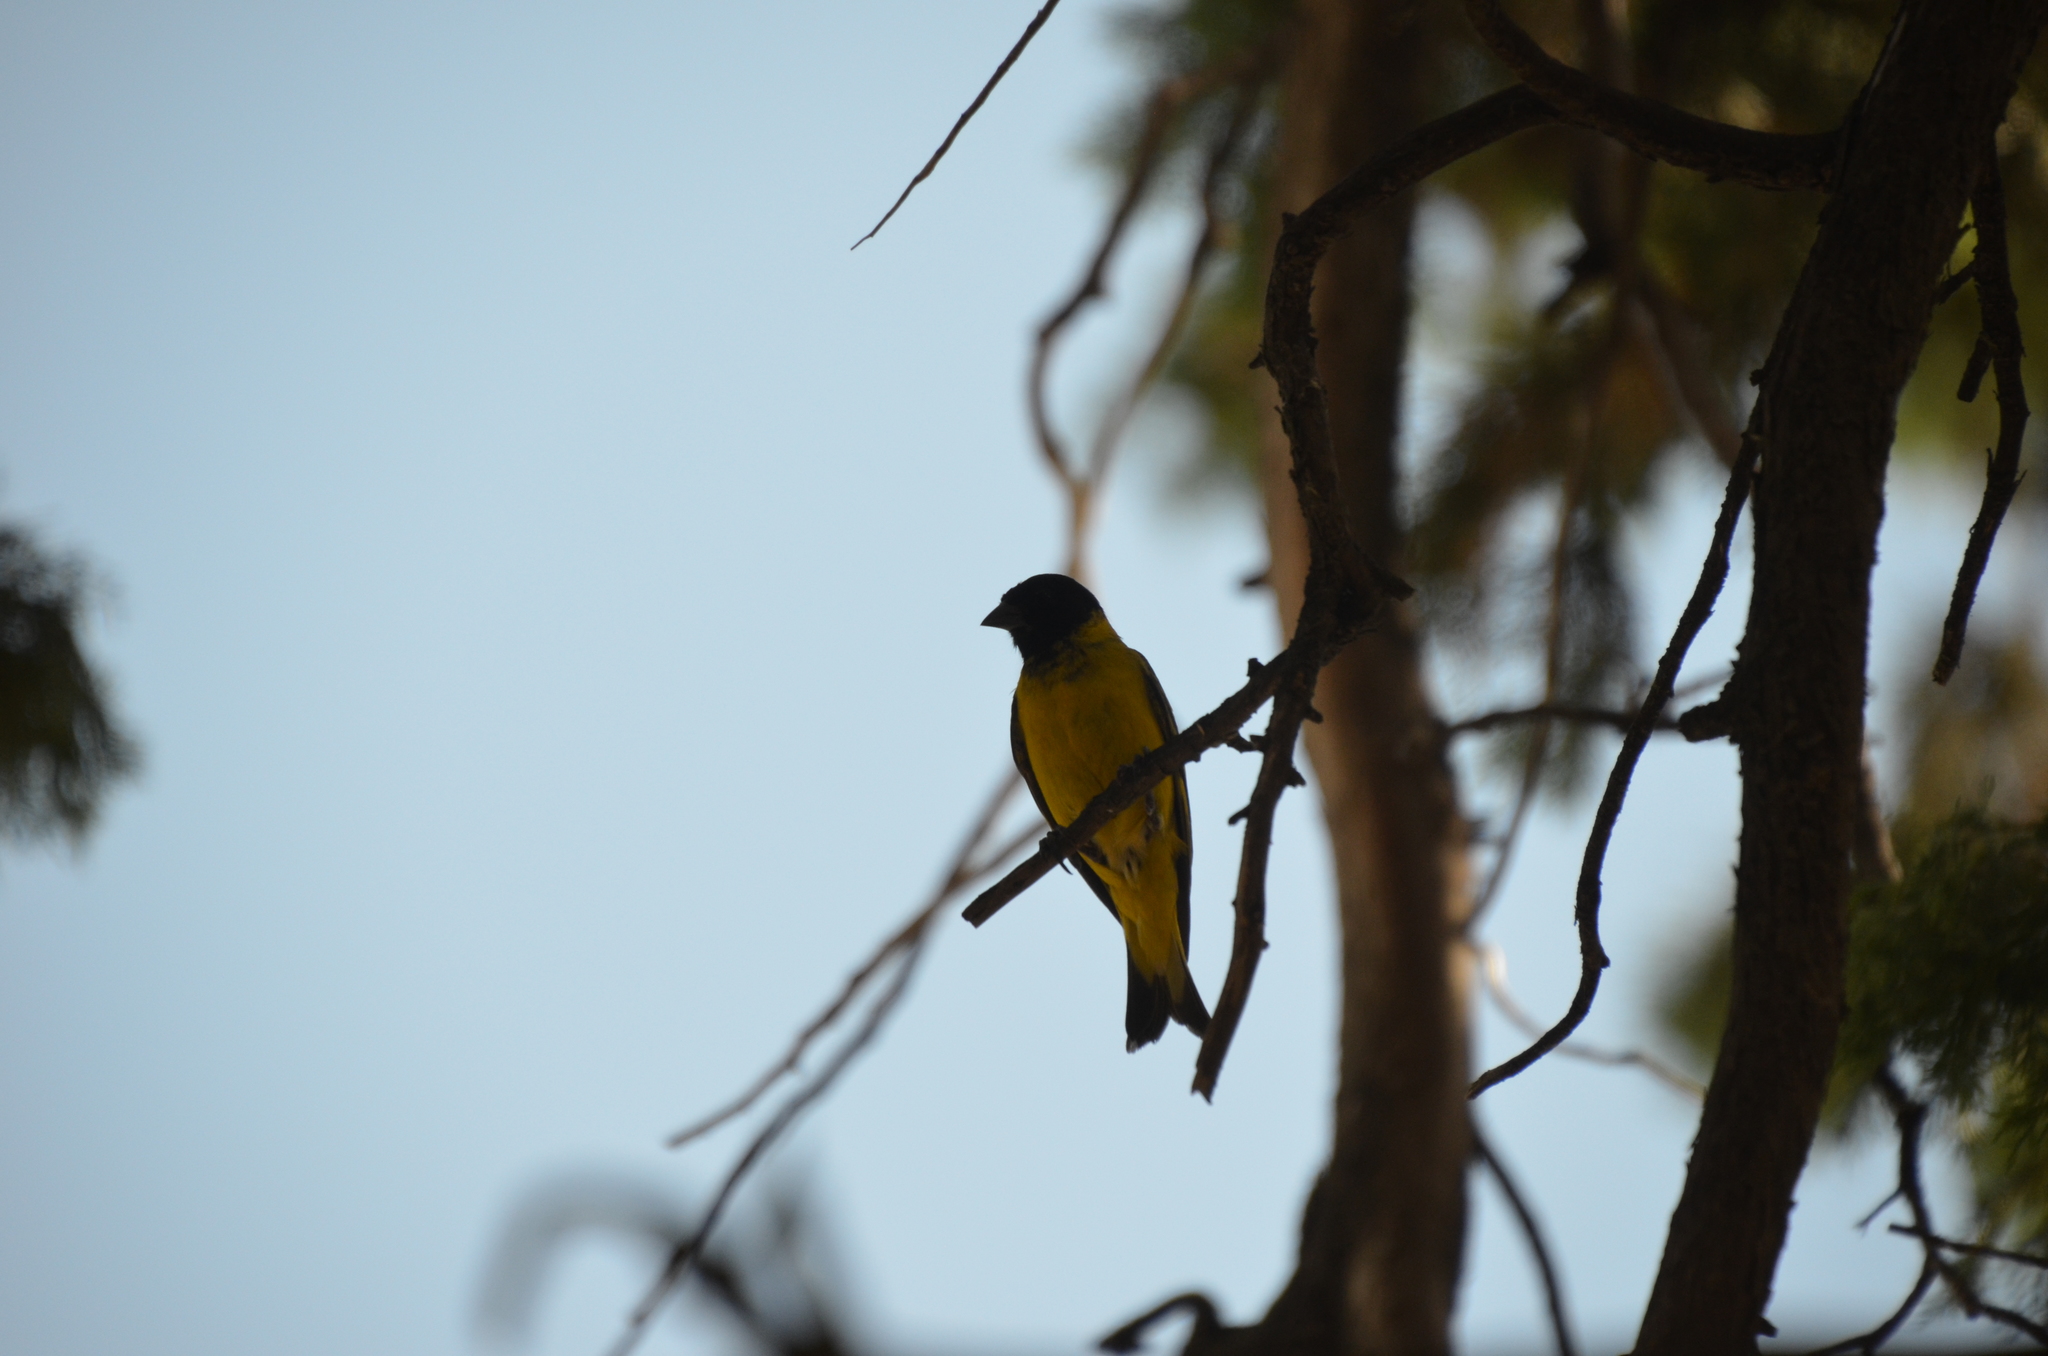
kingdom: Animalia
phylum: Chordata
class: Aves
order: Passeriformes
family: Fringillidae
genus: Spinus
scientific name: Spinus magellanicus
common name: Hooded siskin
